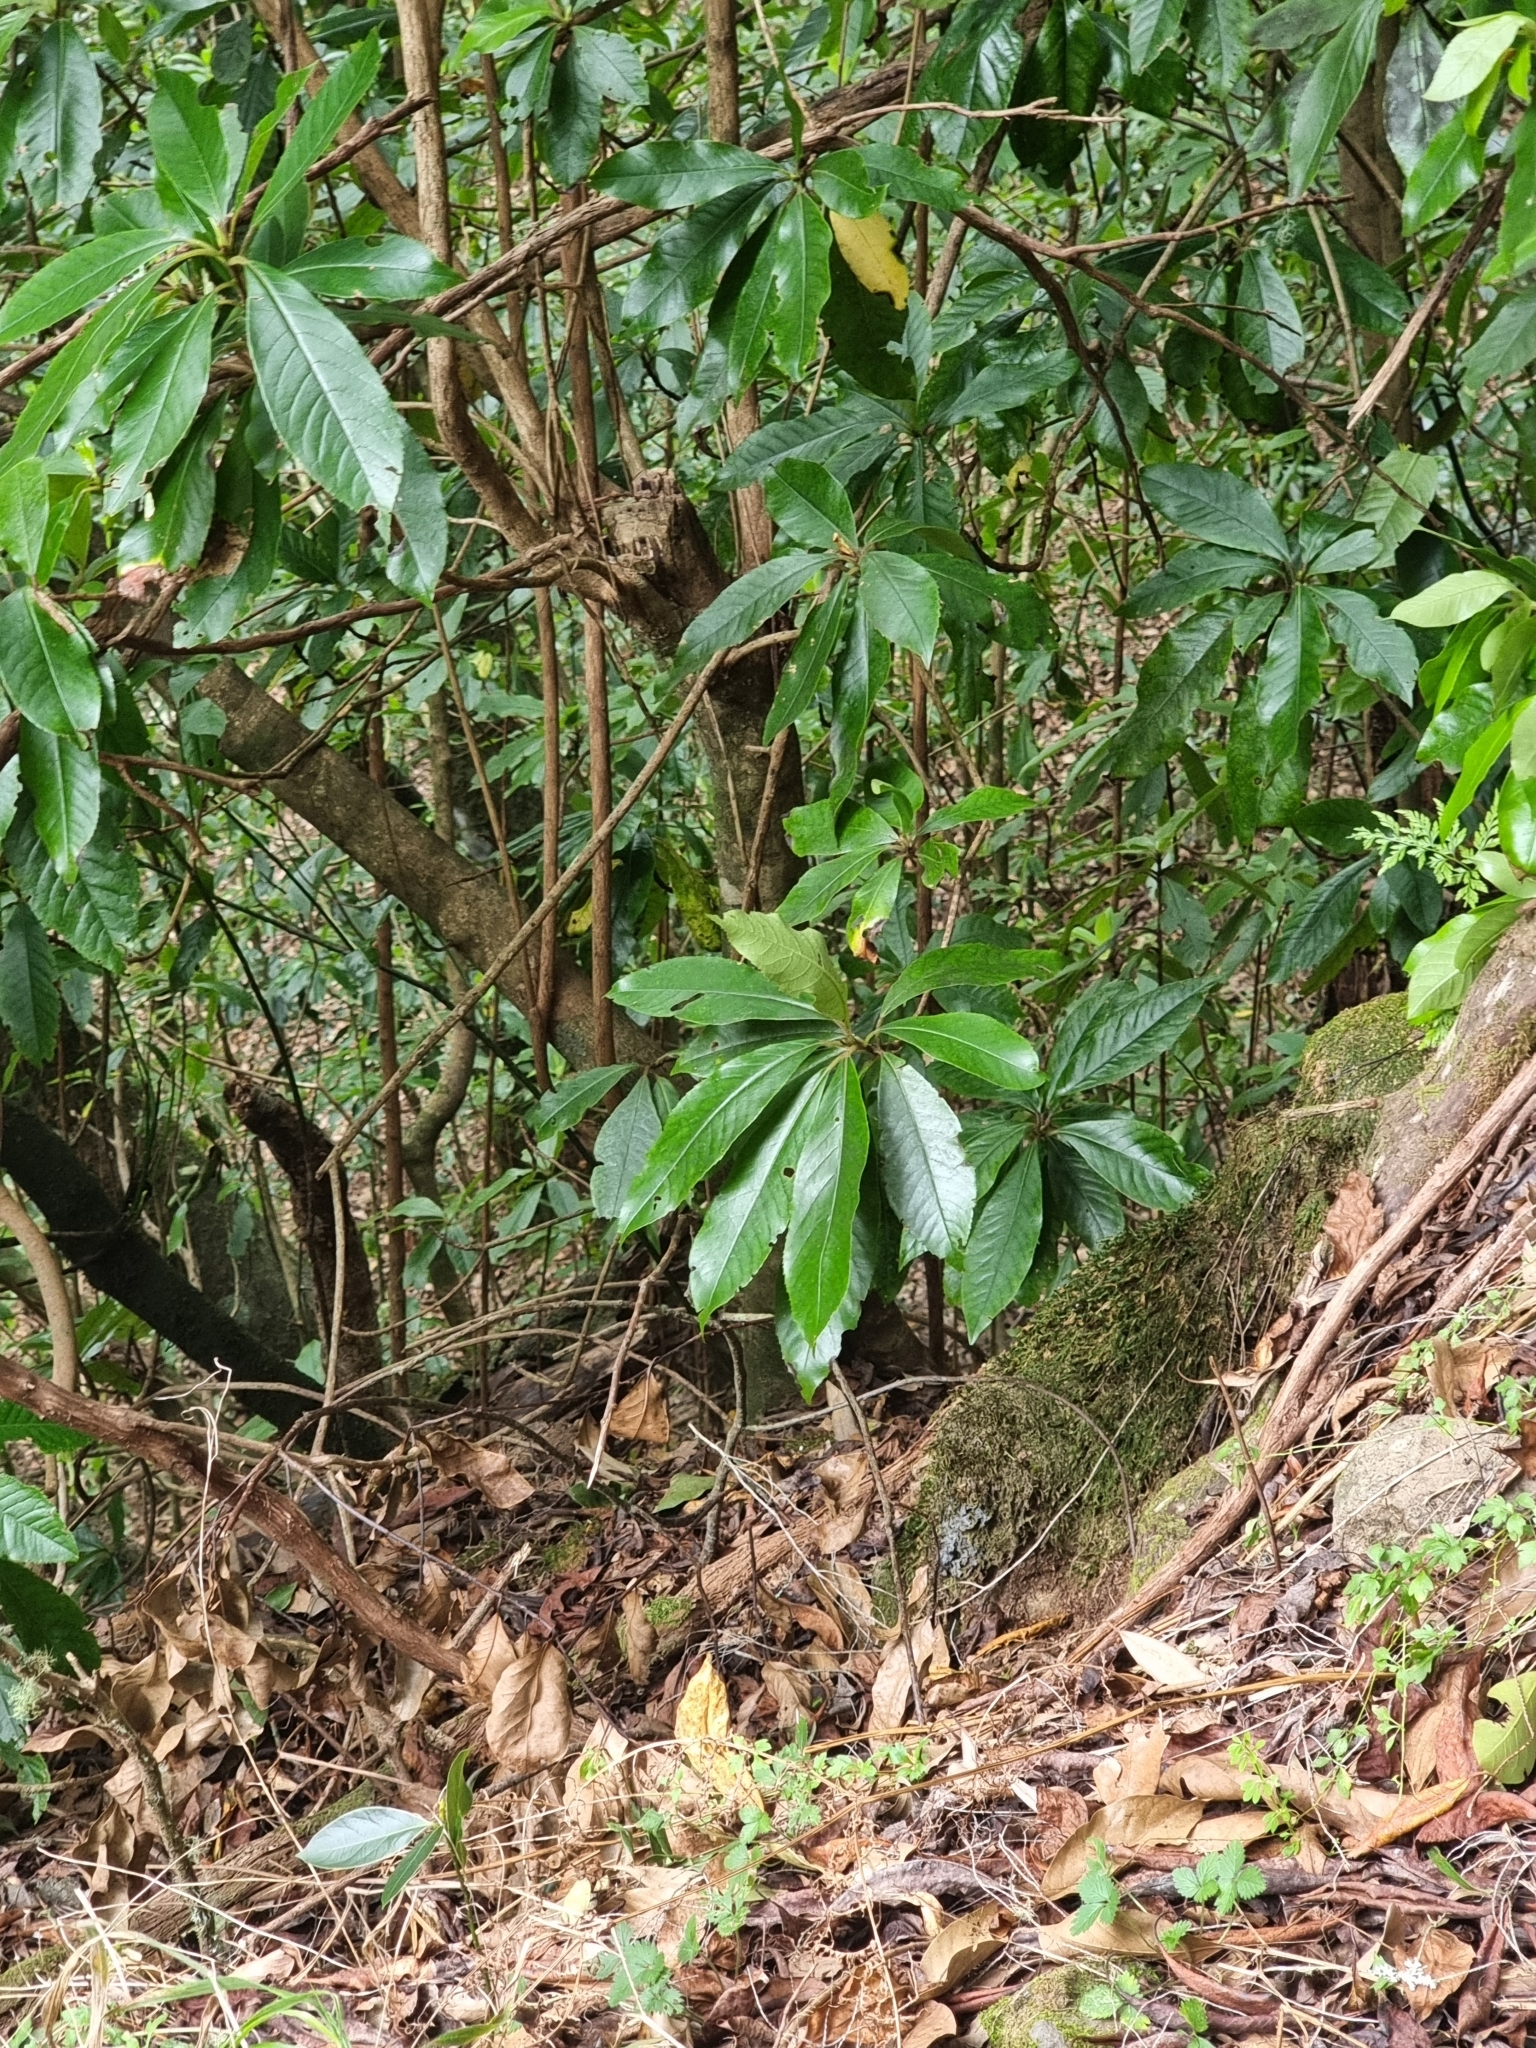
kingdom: Plantae
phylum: Tracheophyta
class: Magnoliopsida
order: Ericales
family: Clethraceae
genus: Clethra
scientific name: Clethra arborea
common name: Lily-of-the-valley-tree
